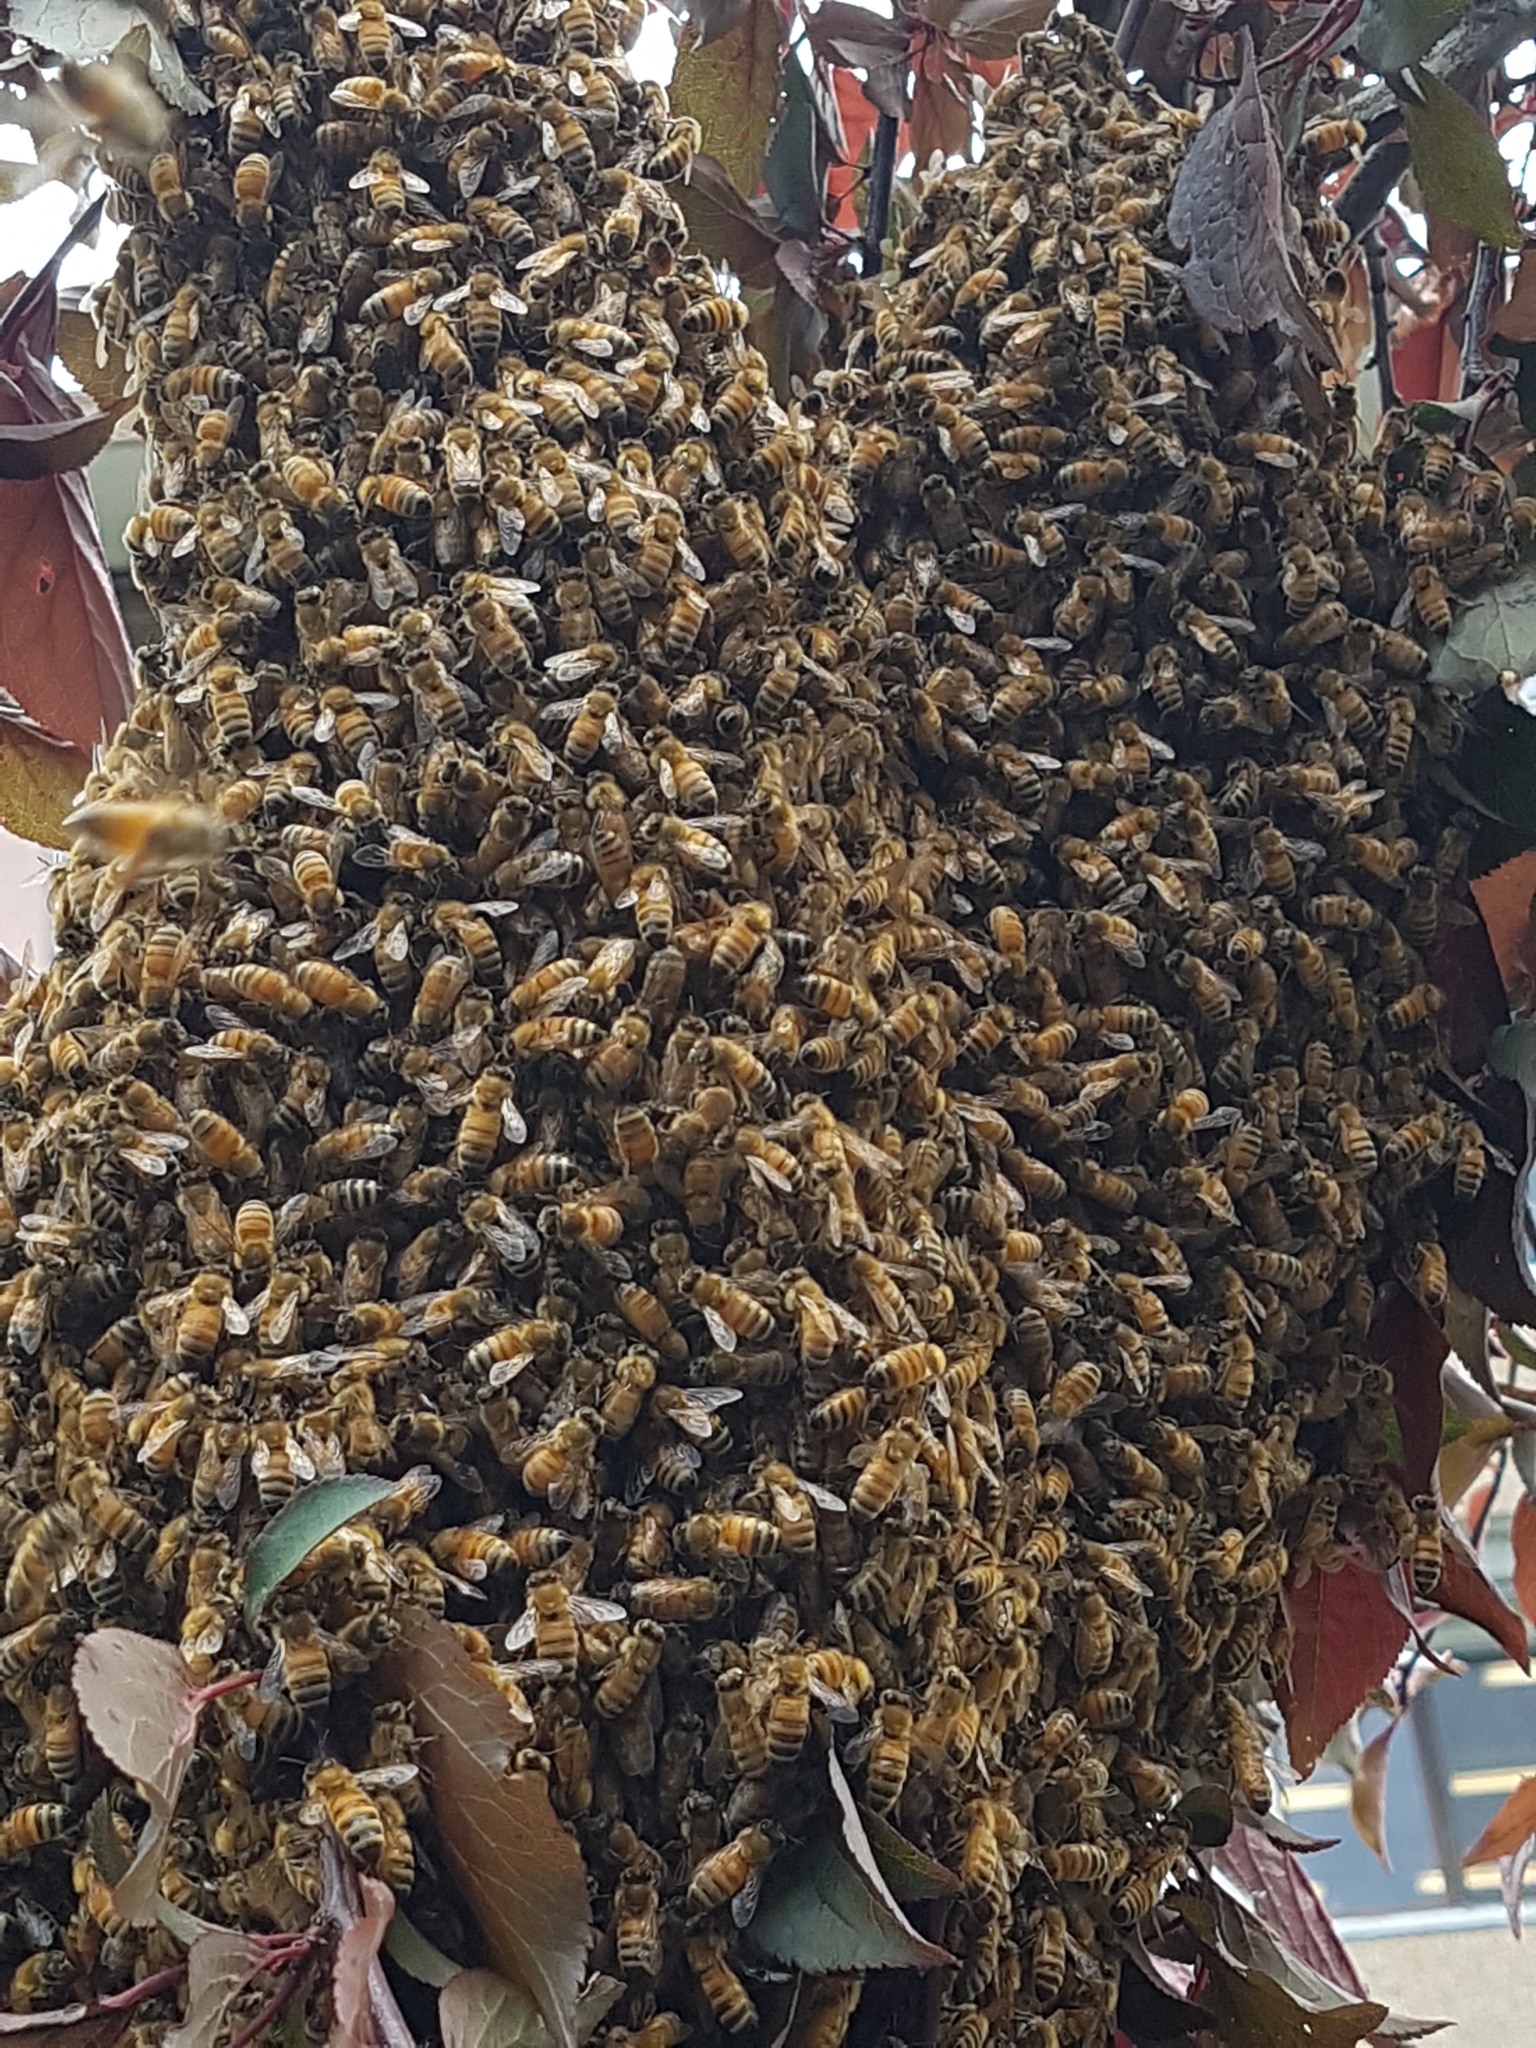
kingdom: Animalia
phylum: Arthropoda
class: Insecta
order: Hymenoptera
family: Apidae
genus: Apis
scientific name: Apis mellifera
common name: Honey bee
